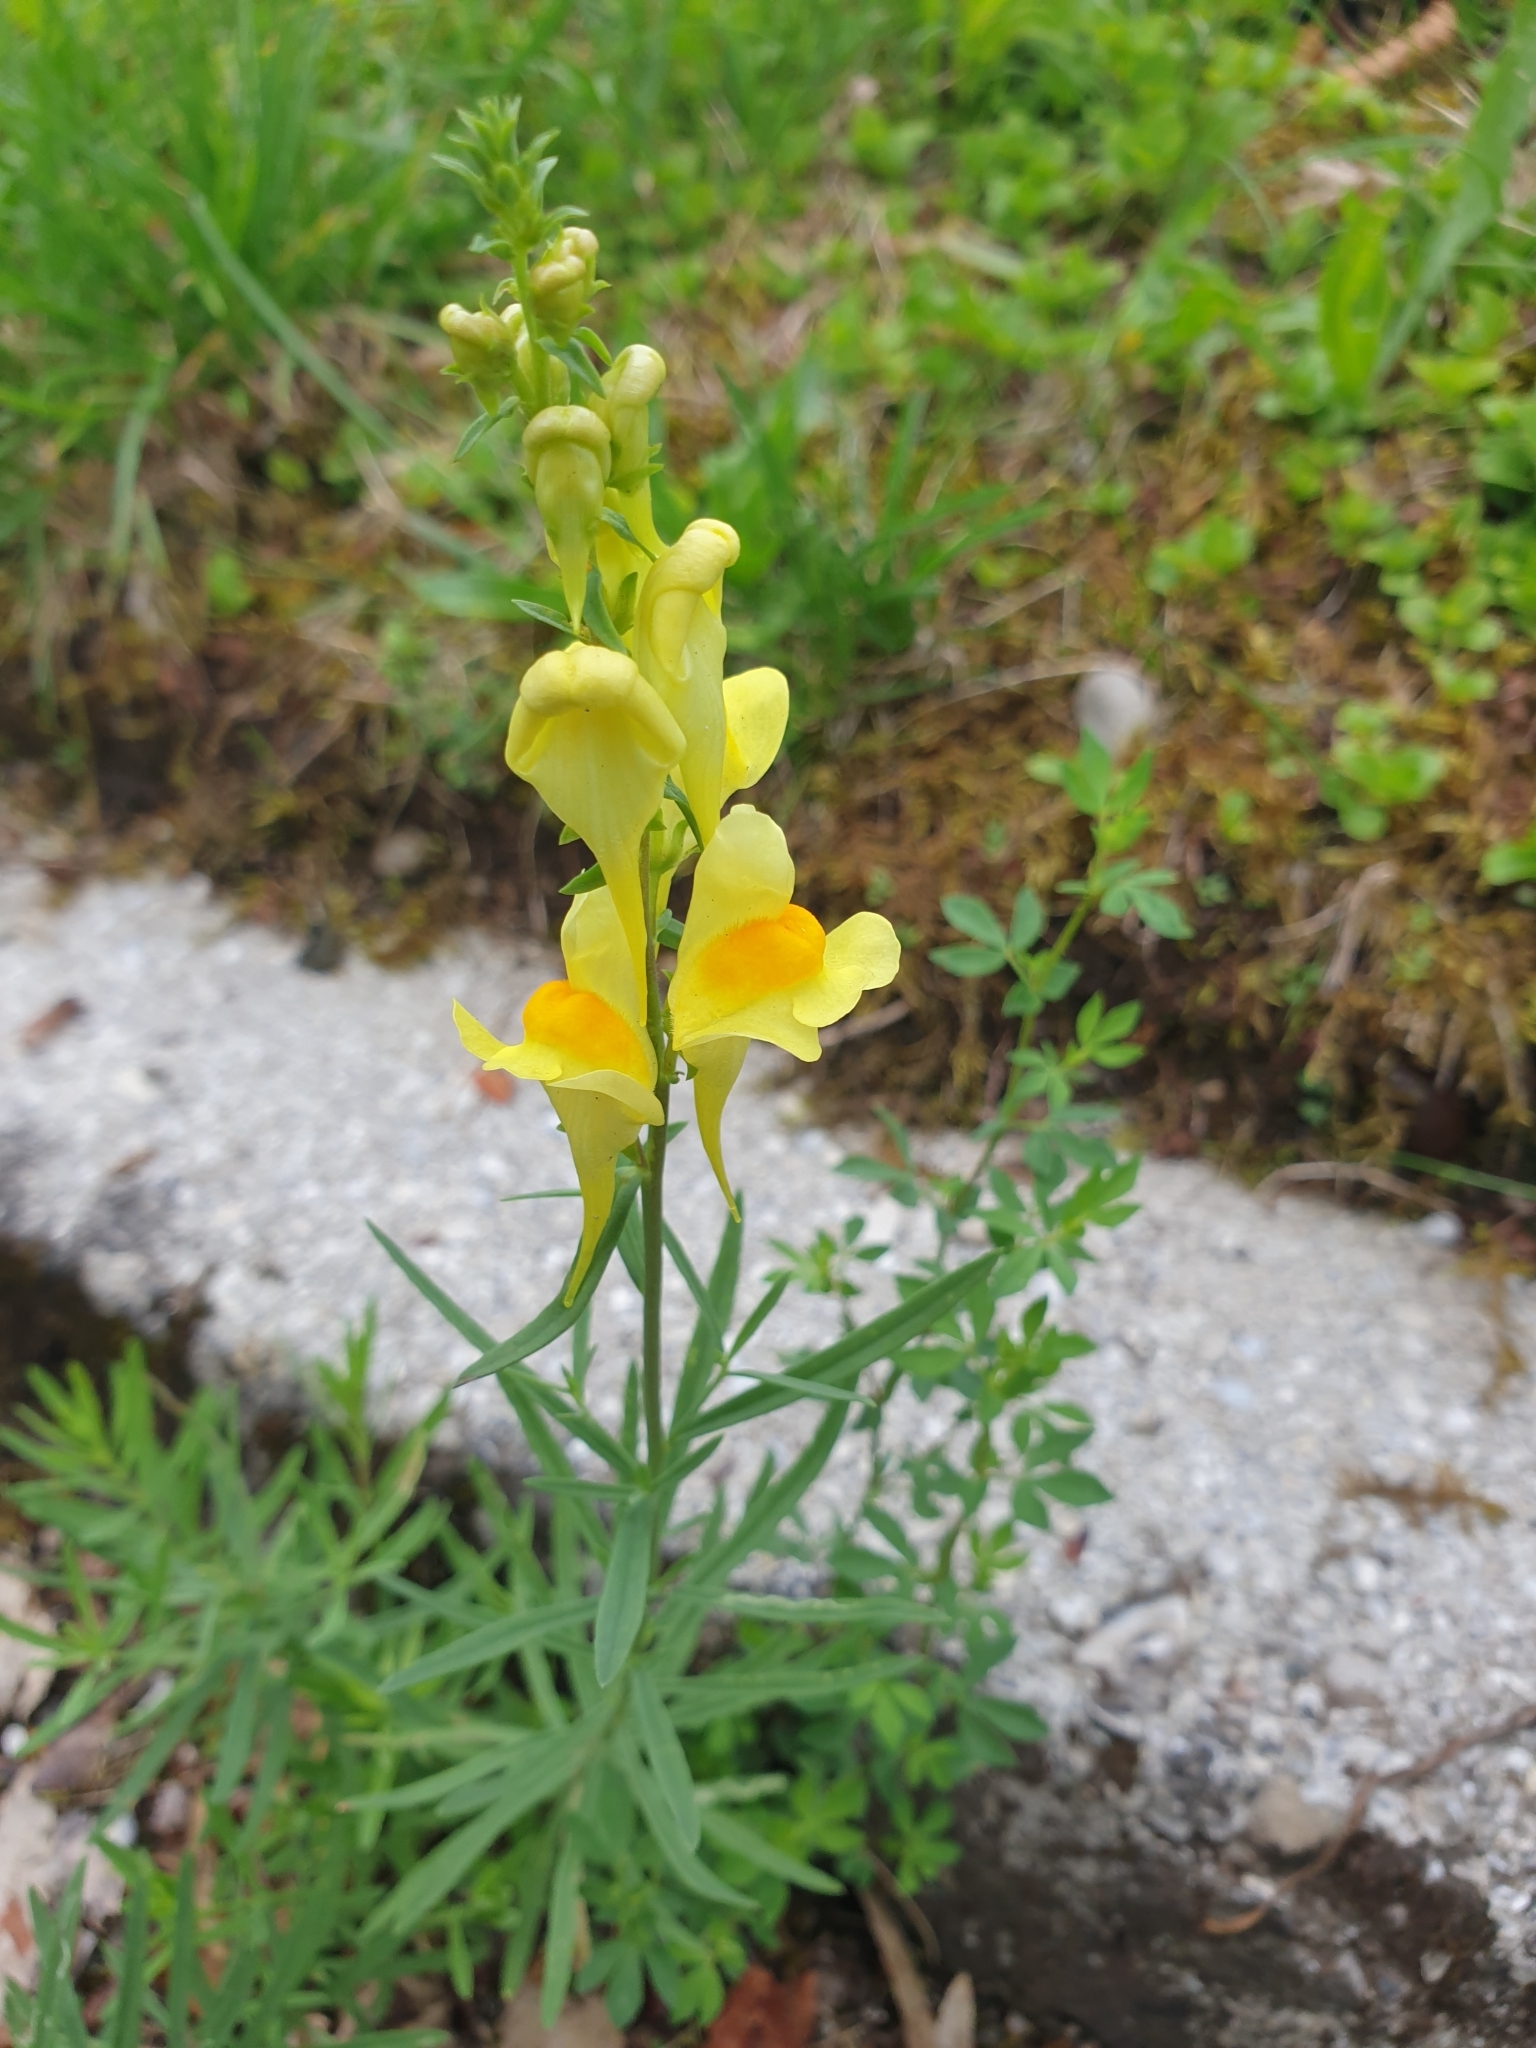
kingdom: Plantae
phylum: Tracheophyta
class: Magnoliopsida
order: Lamiales
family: Plantaginaceae
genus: Linaria
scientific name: Linaria vulgaris
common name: Butter and eggs
